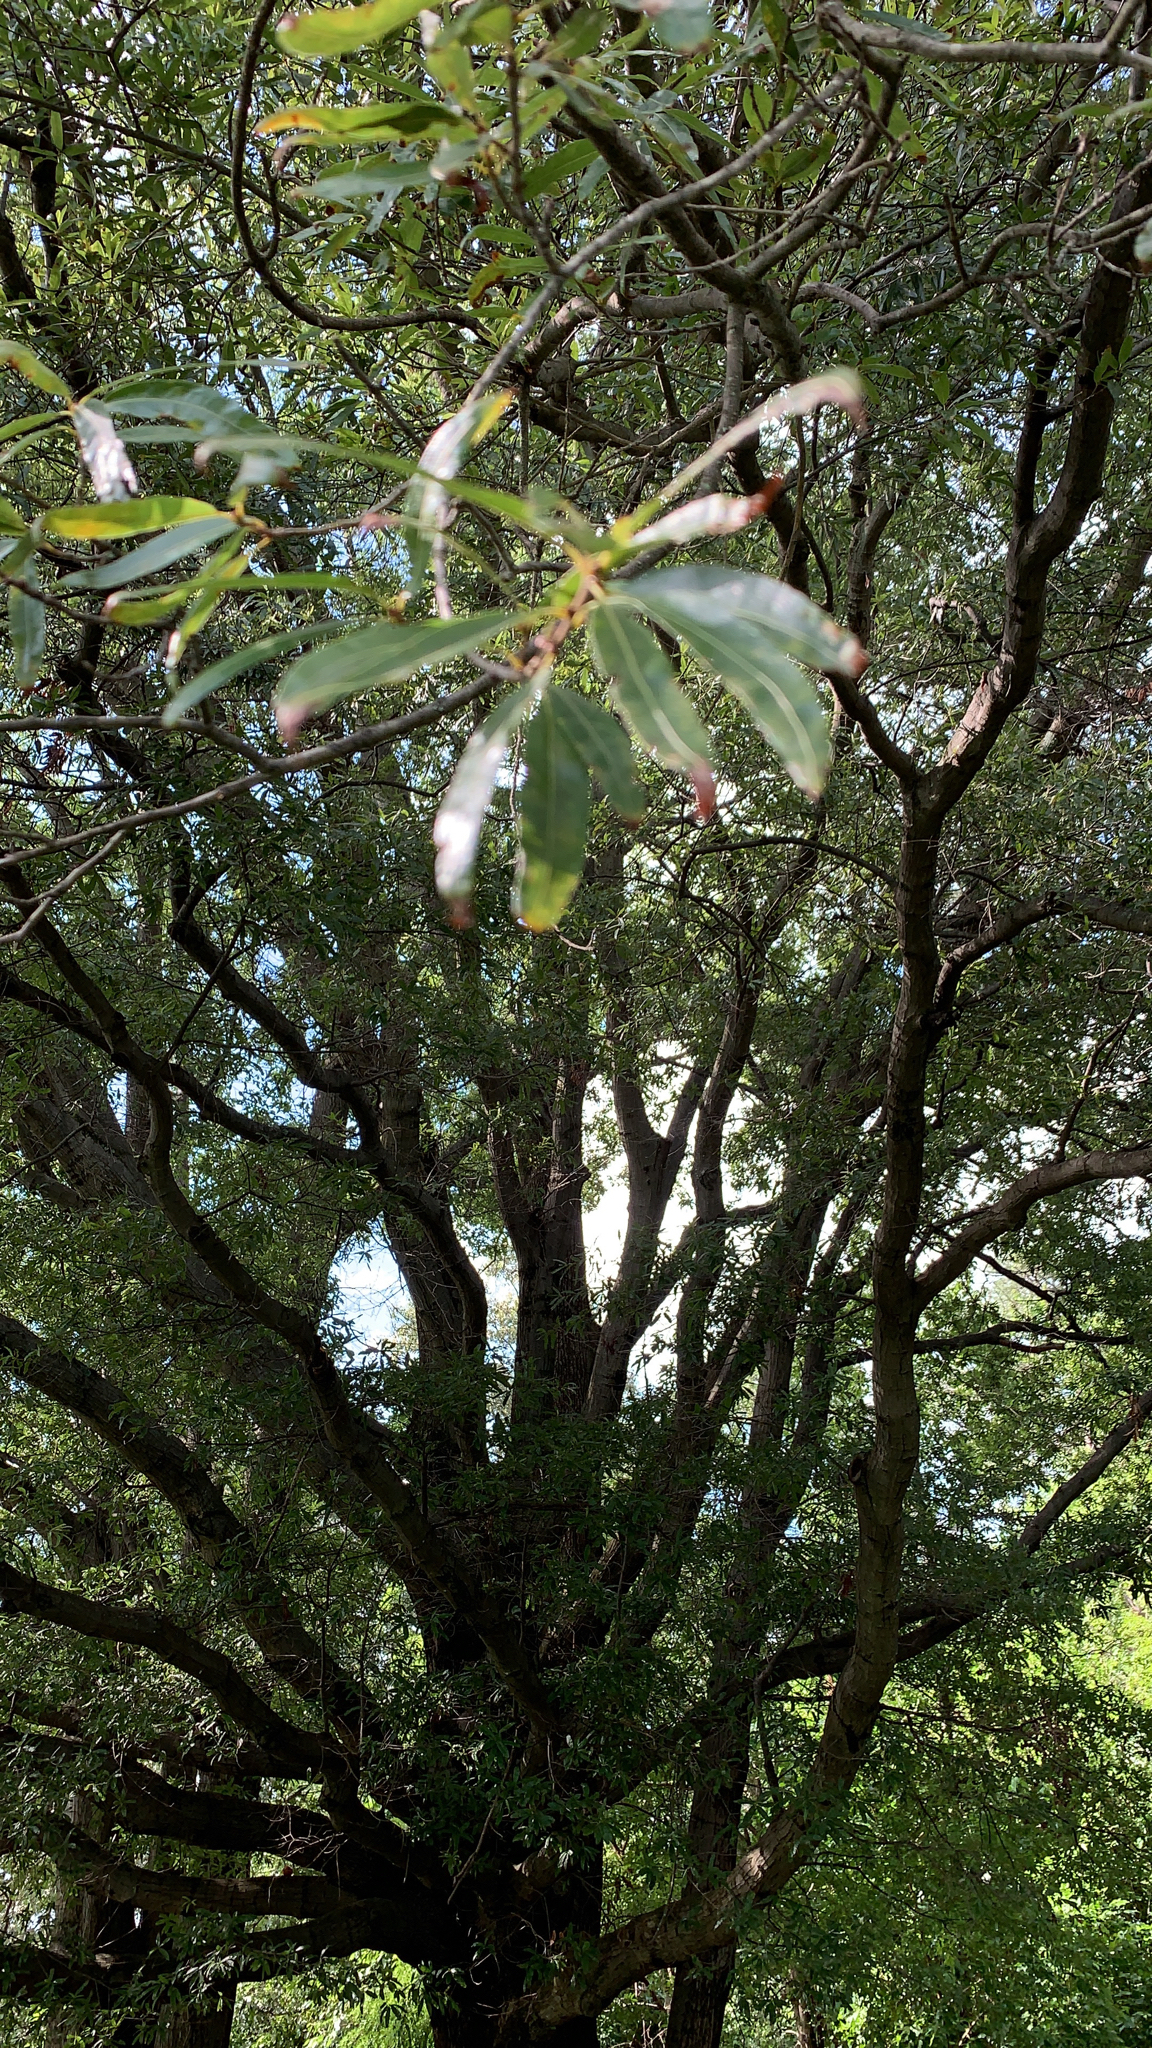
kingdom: Plantae
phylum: Tracheophyta
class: Magnoliopsida
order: Fagales
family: Fagaceae
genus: Quercus
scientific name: Quercus phellos
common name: Willow oak
